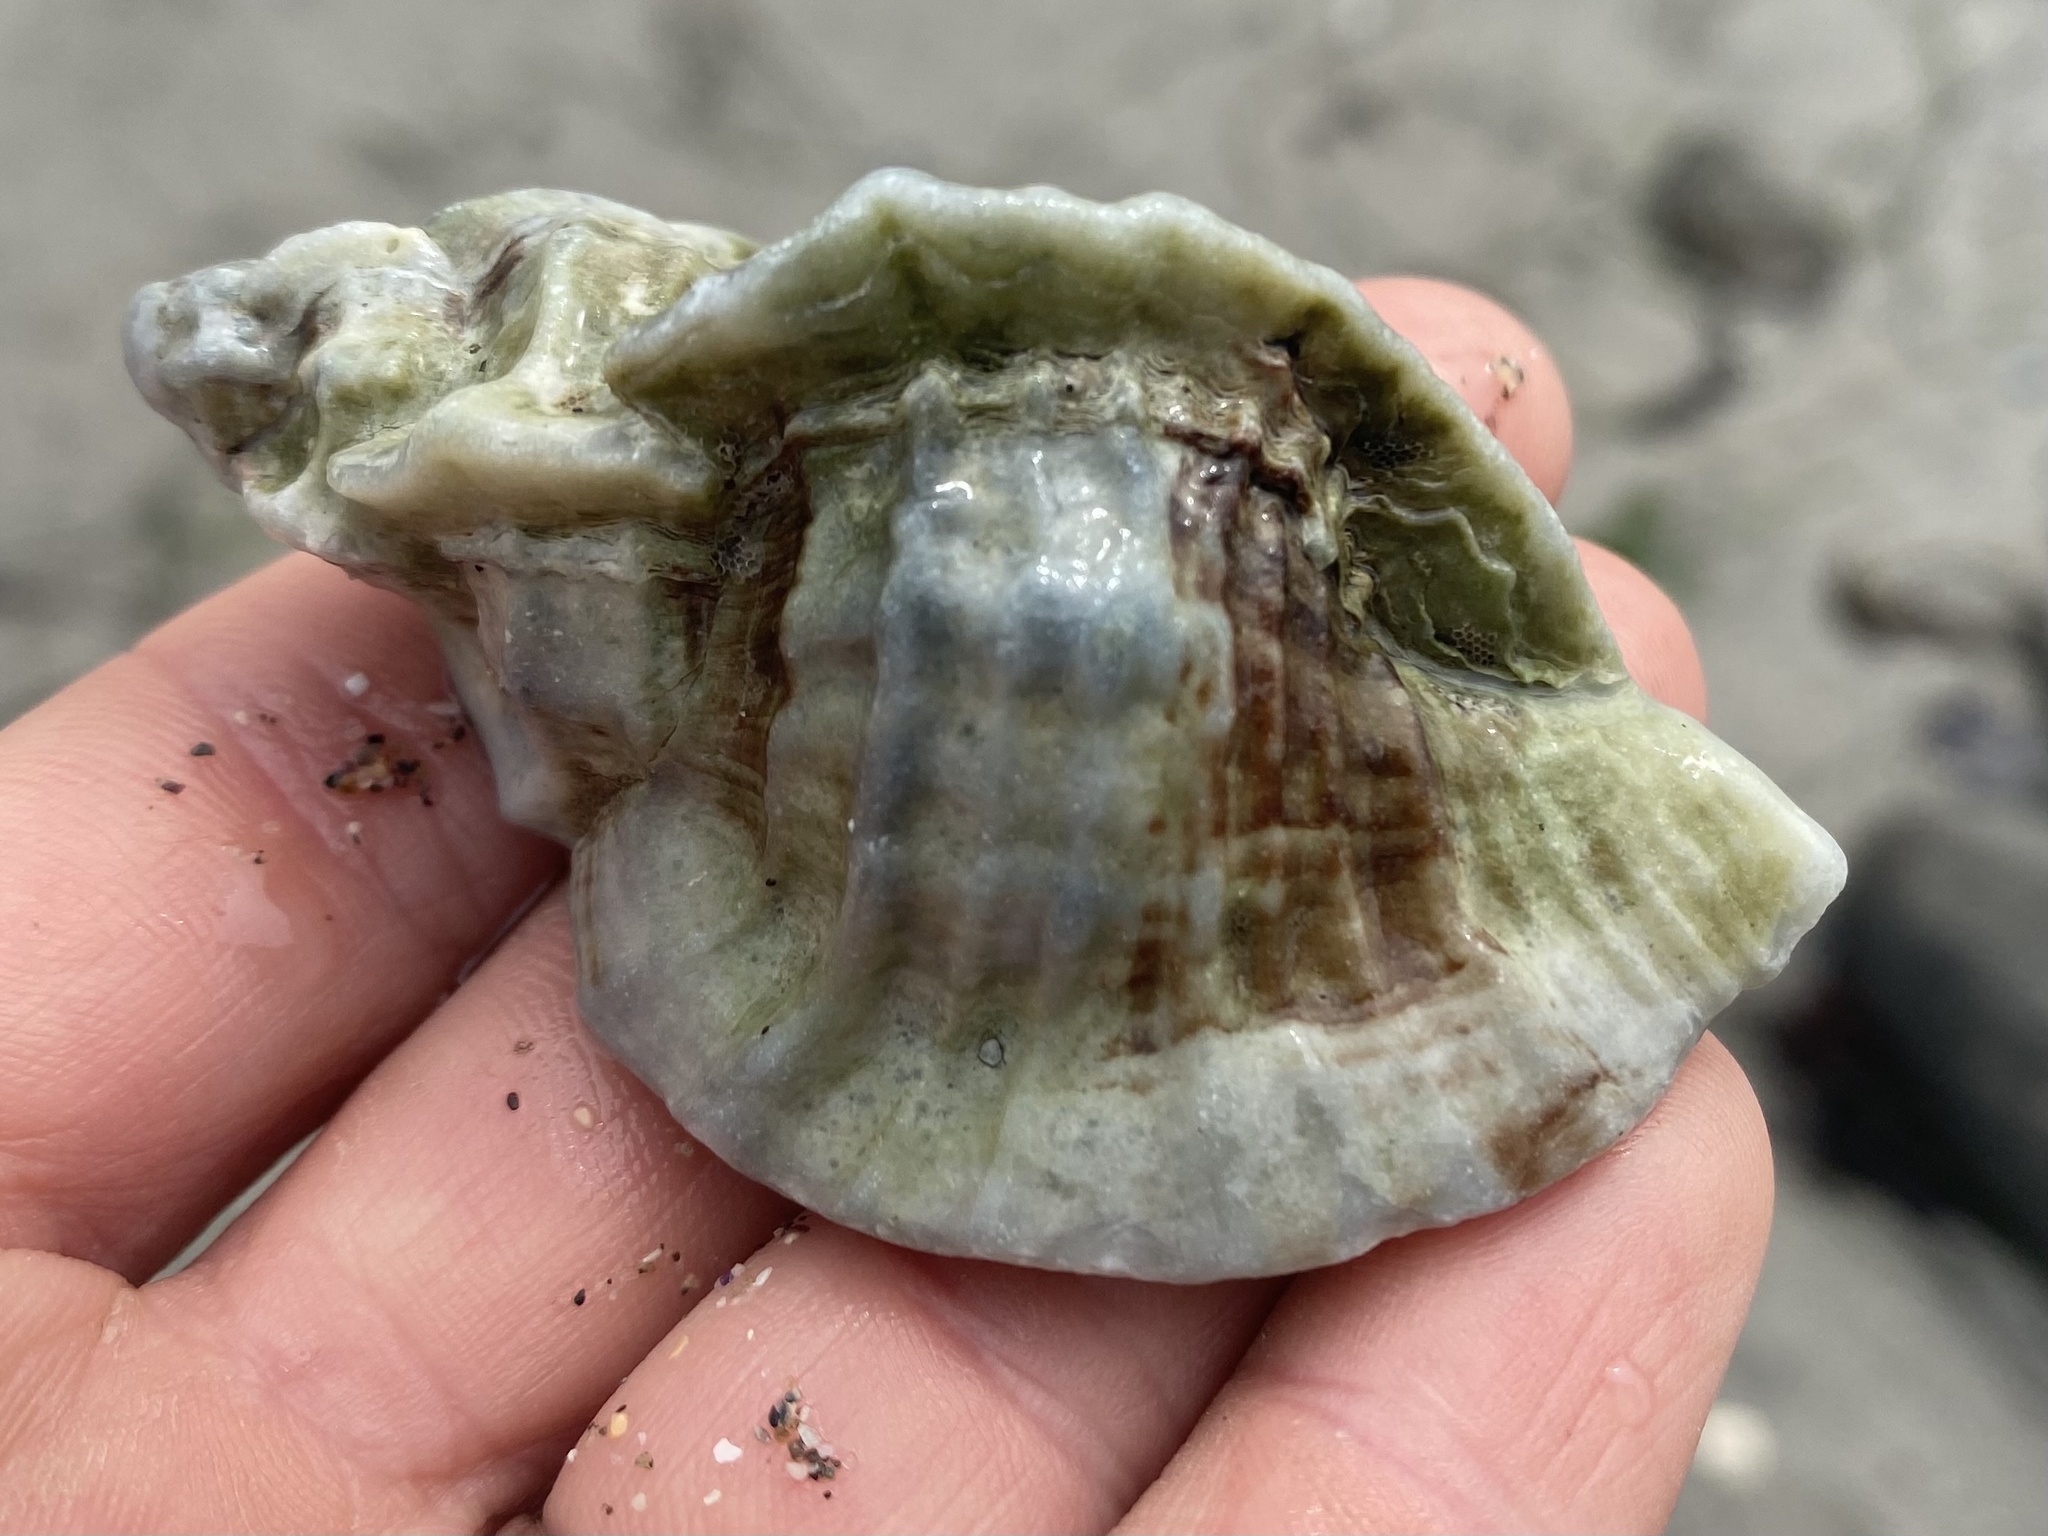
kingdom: Animalia
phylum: Mollusca
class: Gastropoda
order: Neogastropoda
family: Muricidae
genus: Ceratostoma
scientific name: Ceratostoma foliatum
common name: Foliate thorn purpura
